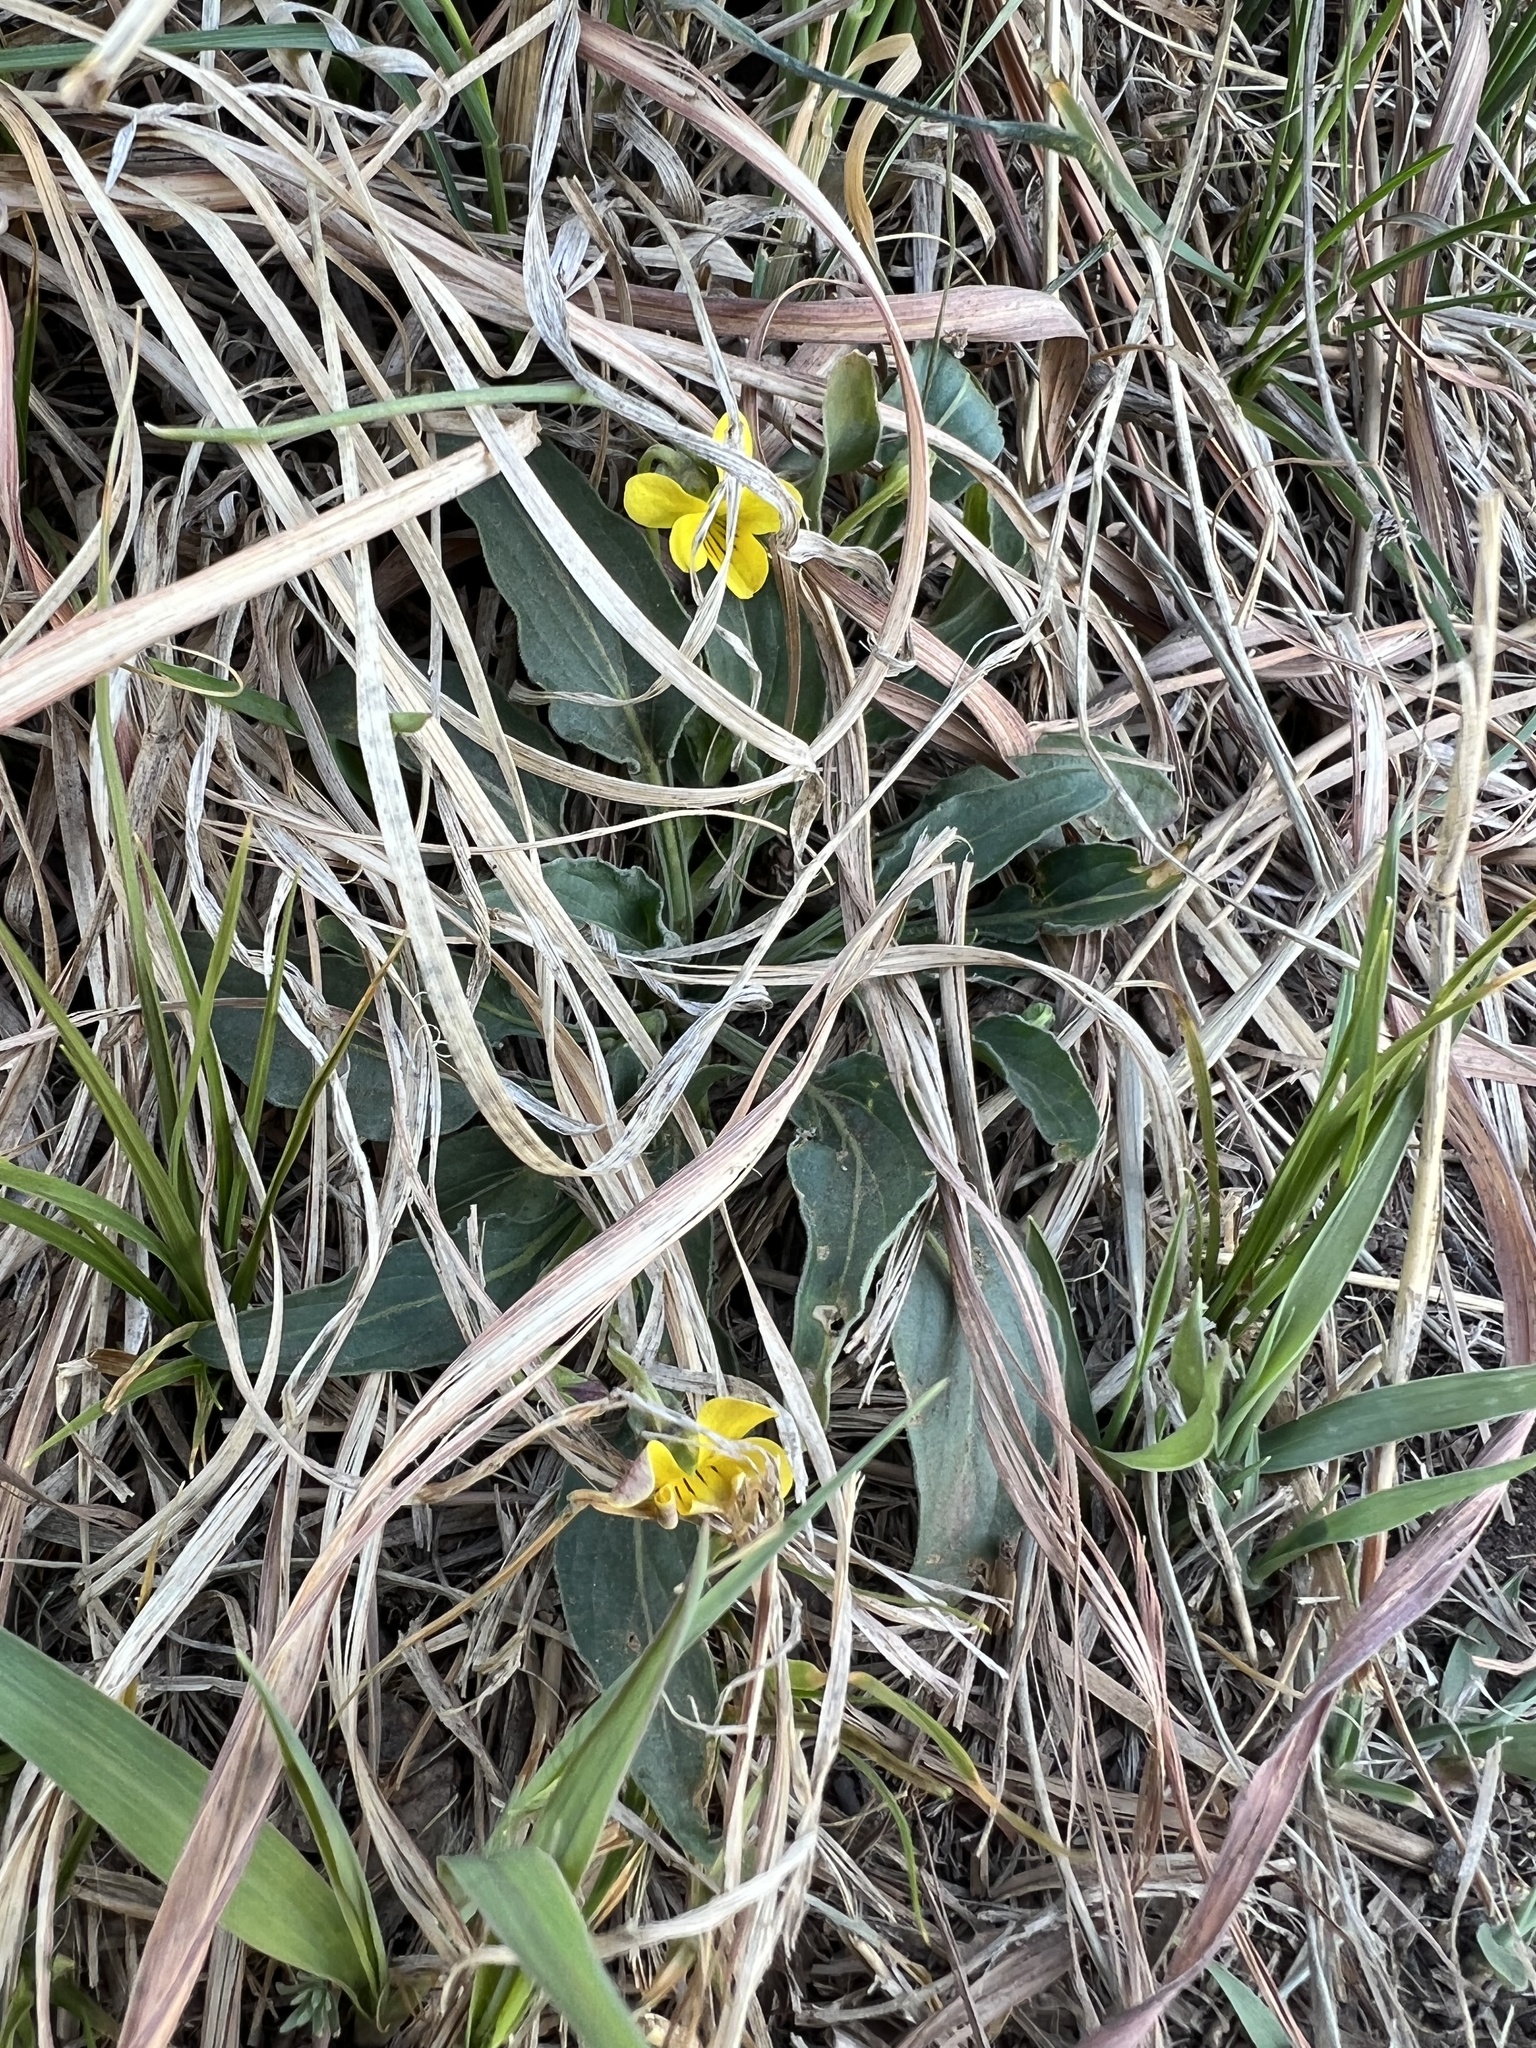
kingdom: Plantae
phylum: Tracheophyta
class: Magnoliopsida
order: Malpighiales
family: Violaceae
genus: Viola
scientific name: Viola nuttallii
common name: Yellow prairie violet
